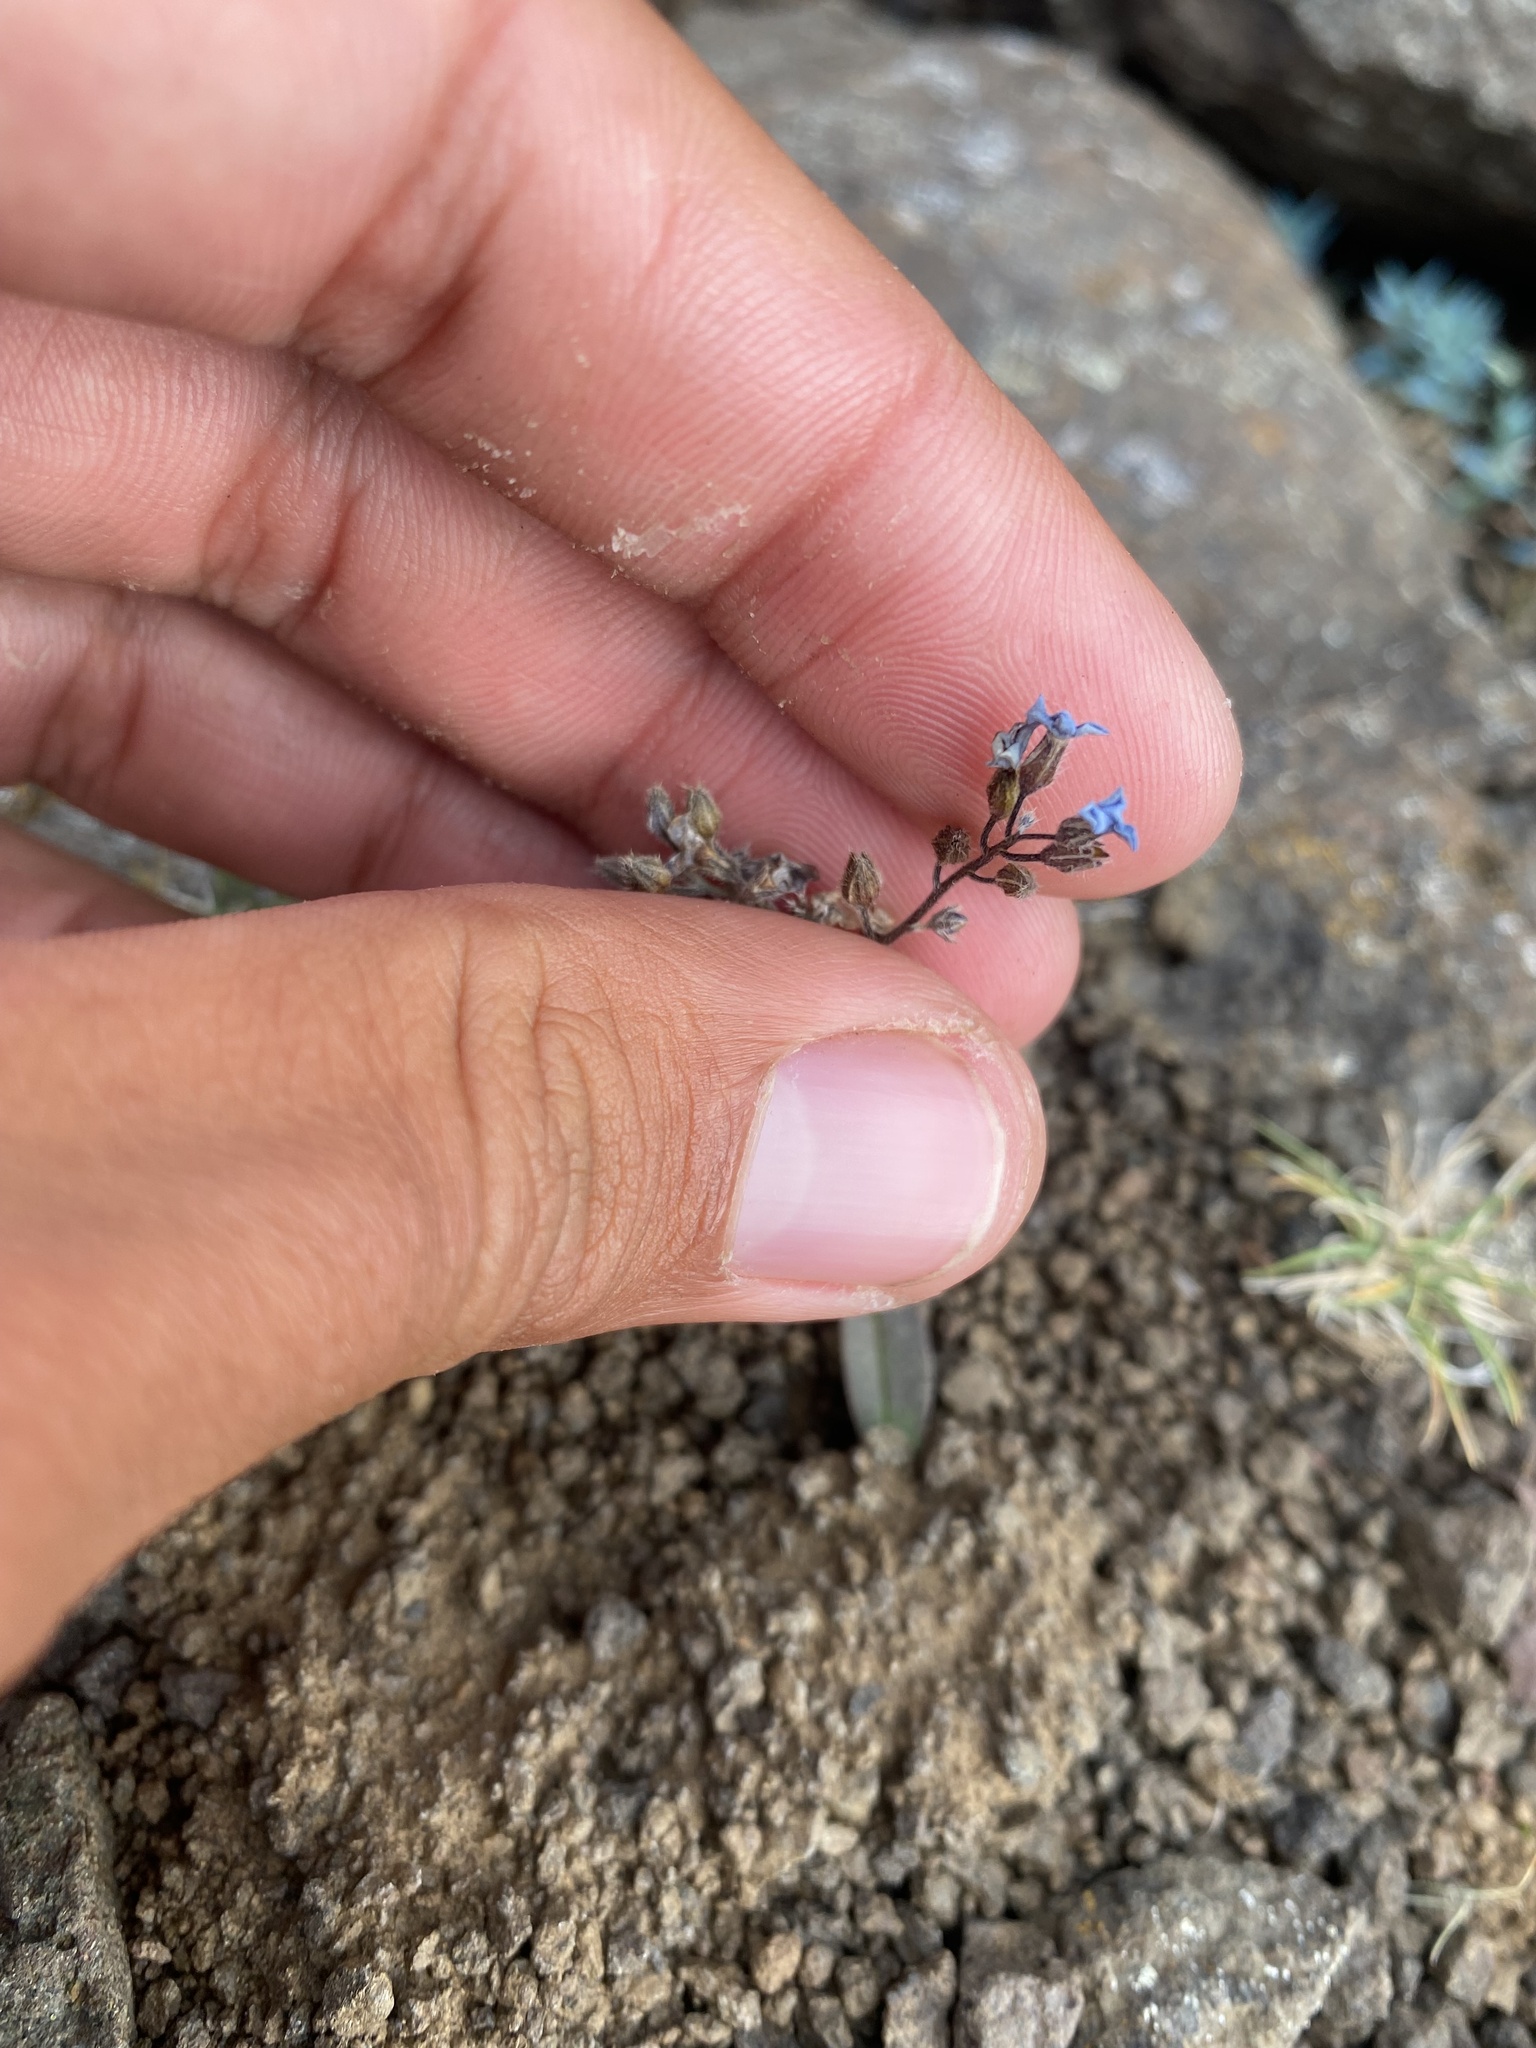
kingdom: Plantae
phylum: Tracheophyta
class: Magnoliopsida
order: Boraginales
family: Boraginaceae
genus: Myosotis
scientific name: Myosotis asiatica
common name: Asian forget-me-not
